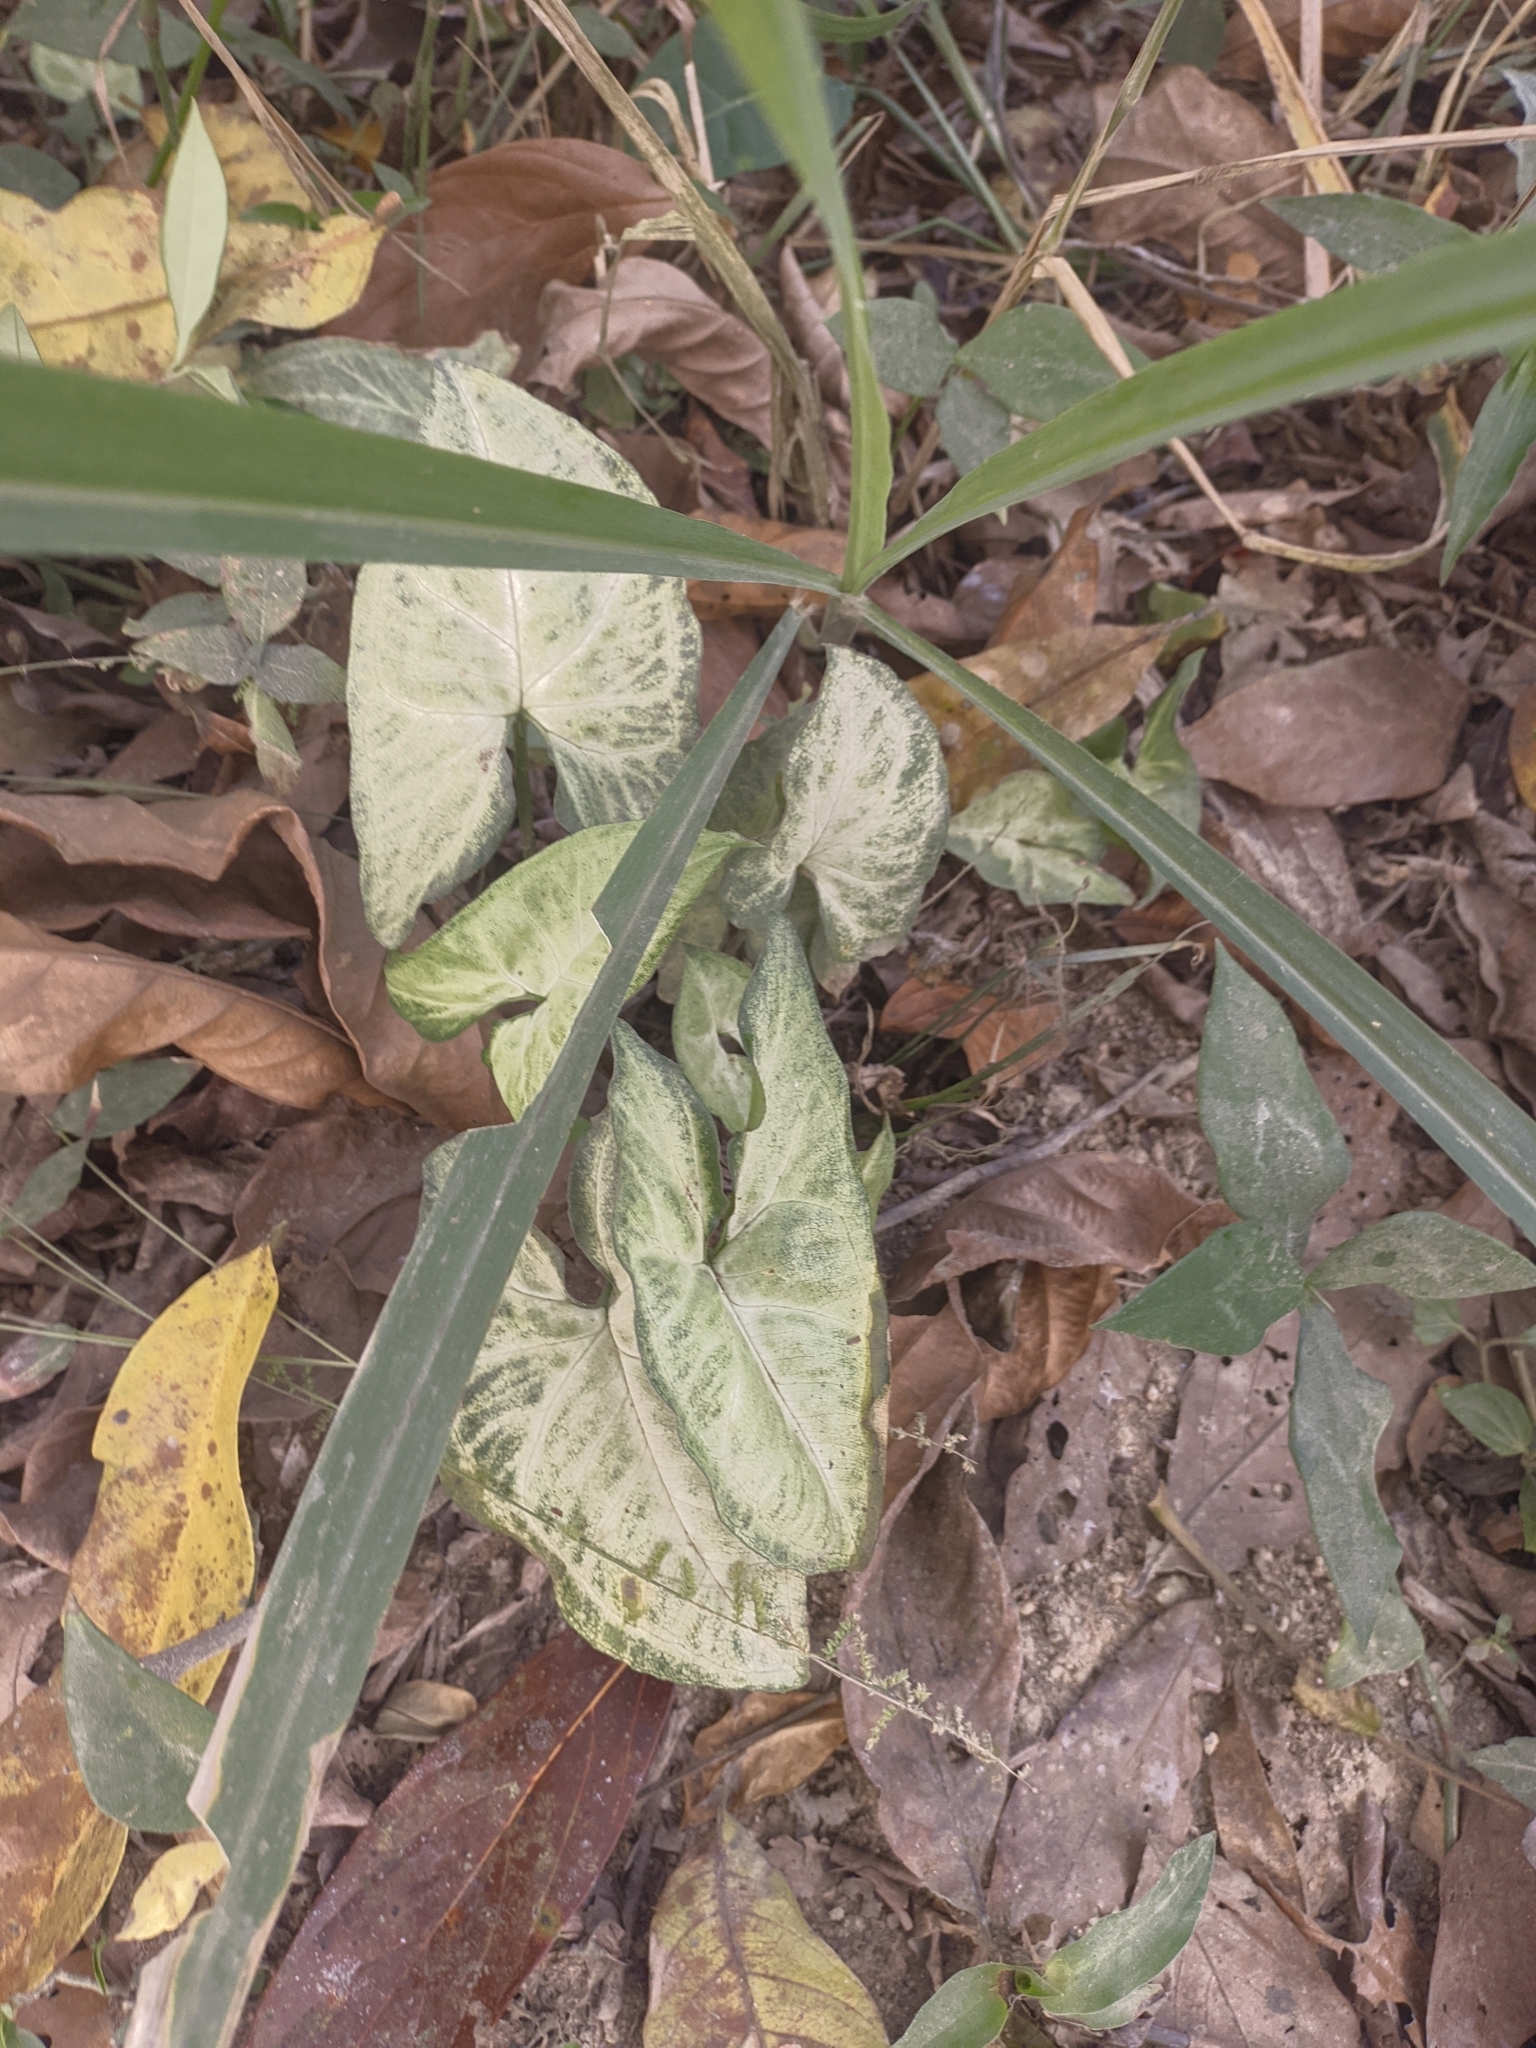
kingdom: Plantae
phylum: Tracheophyta
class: Liliopsida
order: Alismatales
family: Araceae
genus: Syngonium
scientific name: Syngonium podophyllum
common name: American evergreen
